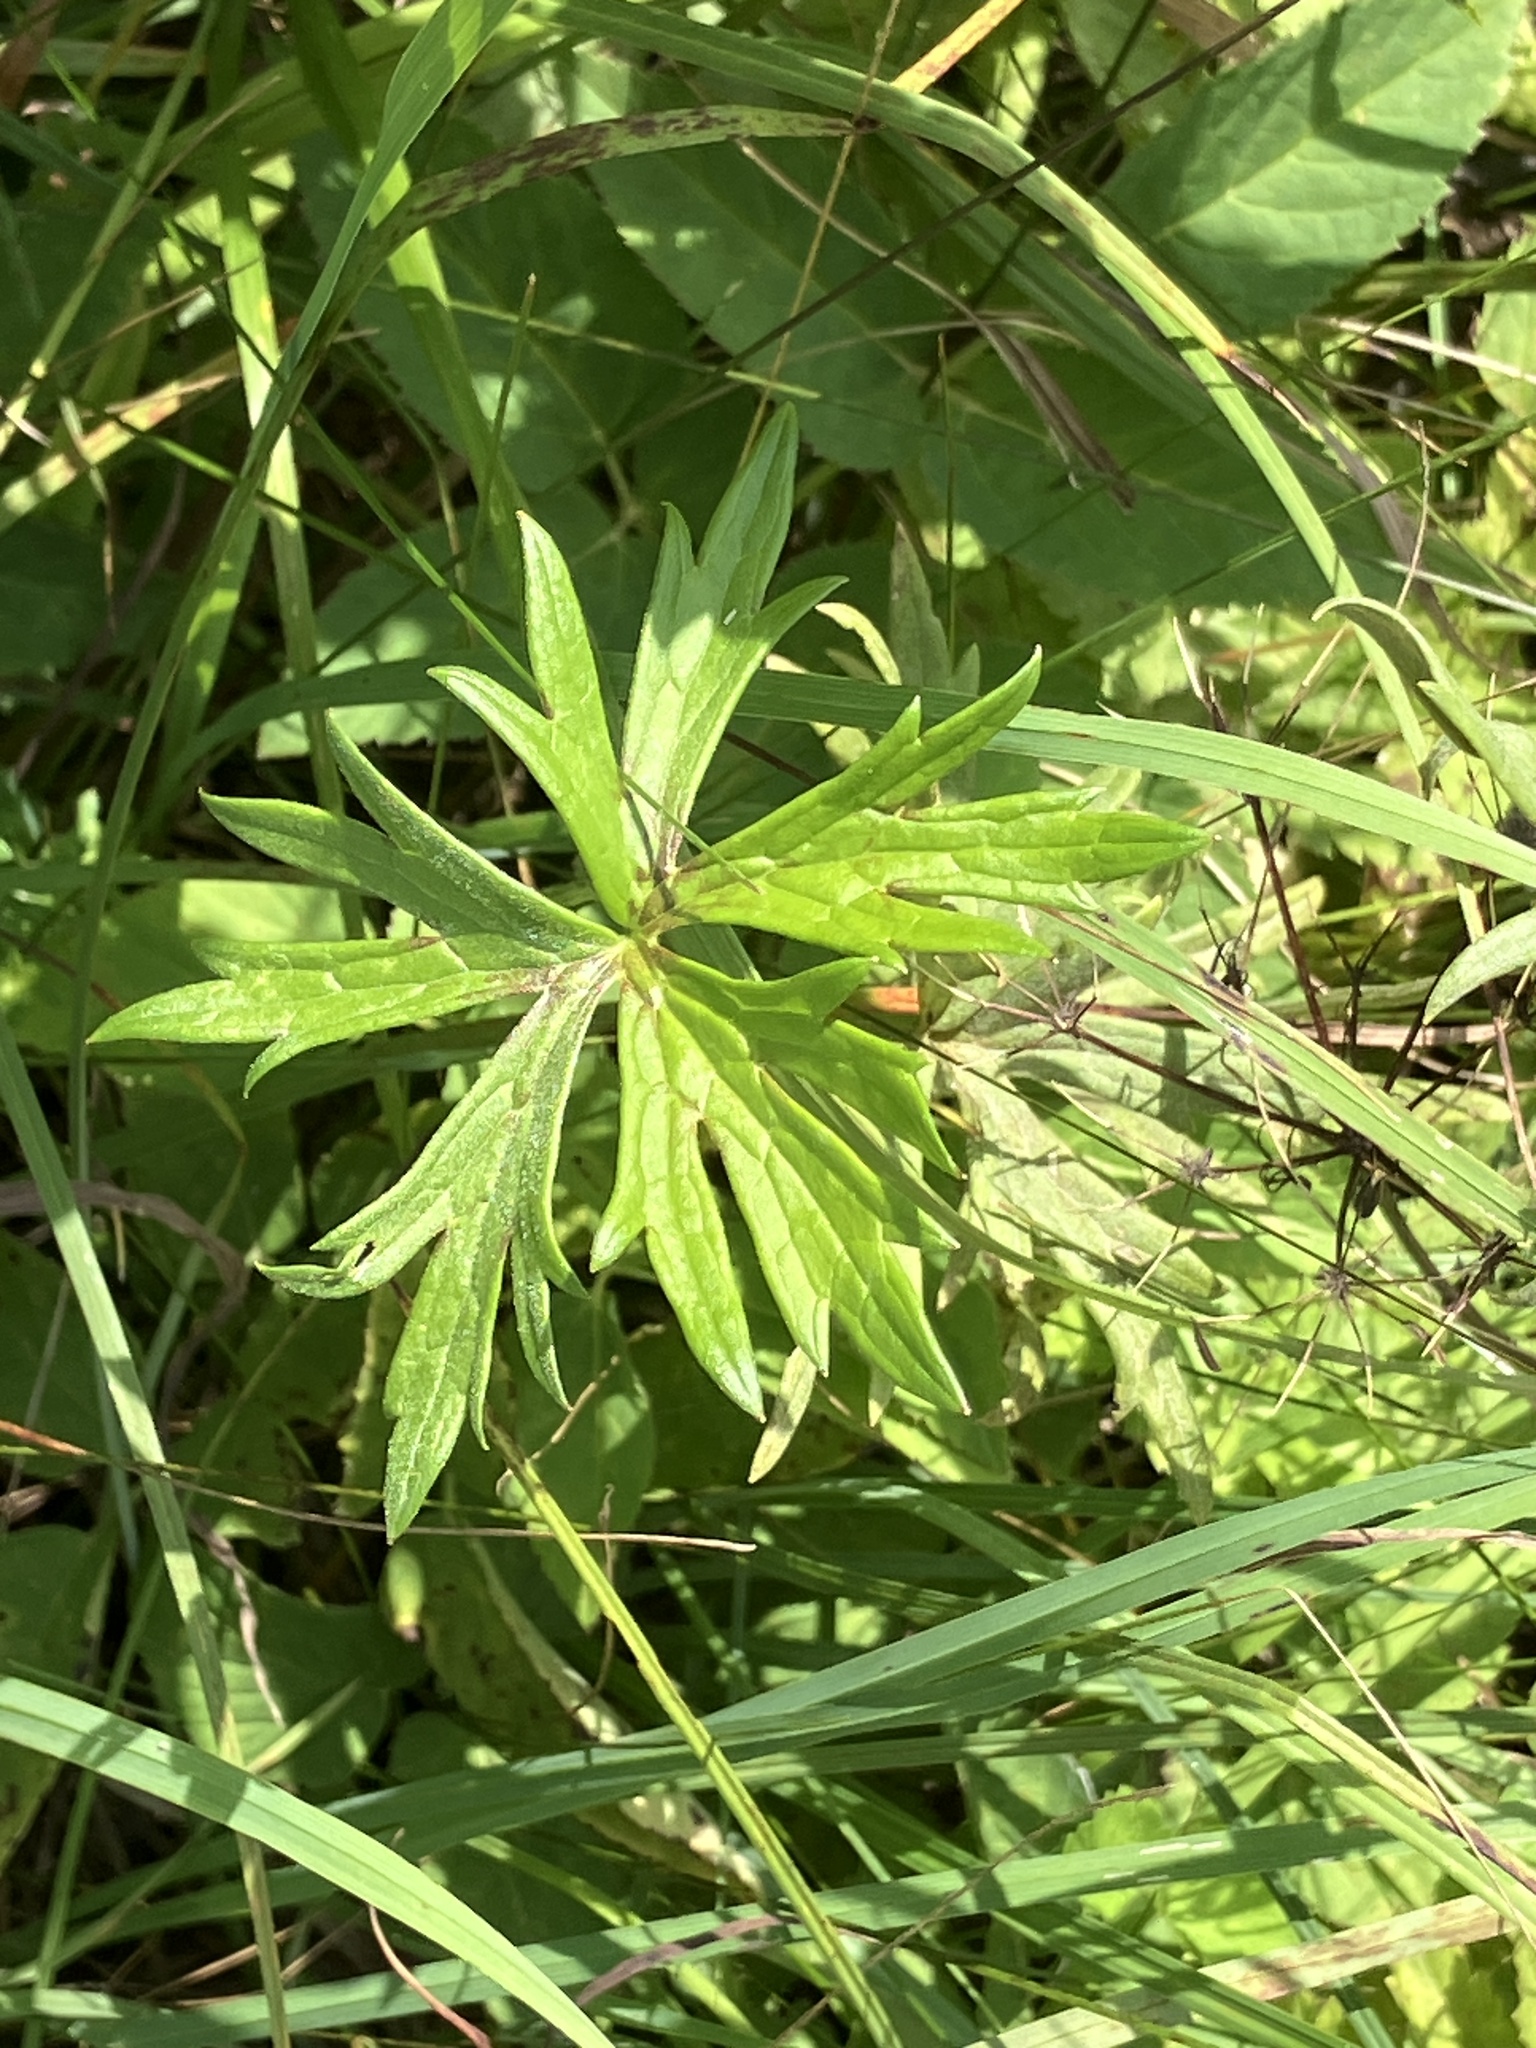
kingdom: Plantae
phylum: Tracheophyta
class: Magnoliopsida
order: Ranunculales
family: Ranunculaceae
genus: Ranunculus
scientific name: Ranunculus acris
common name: Meadow buttercup
